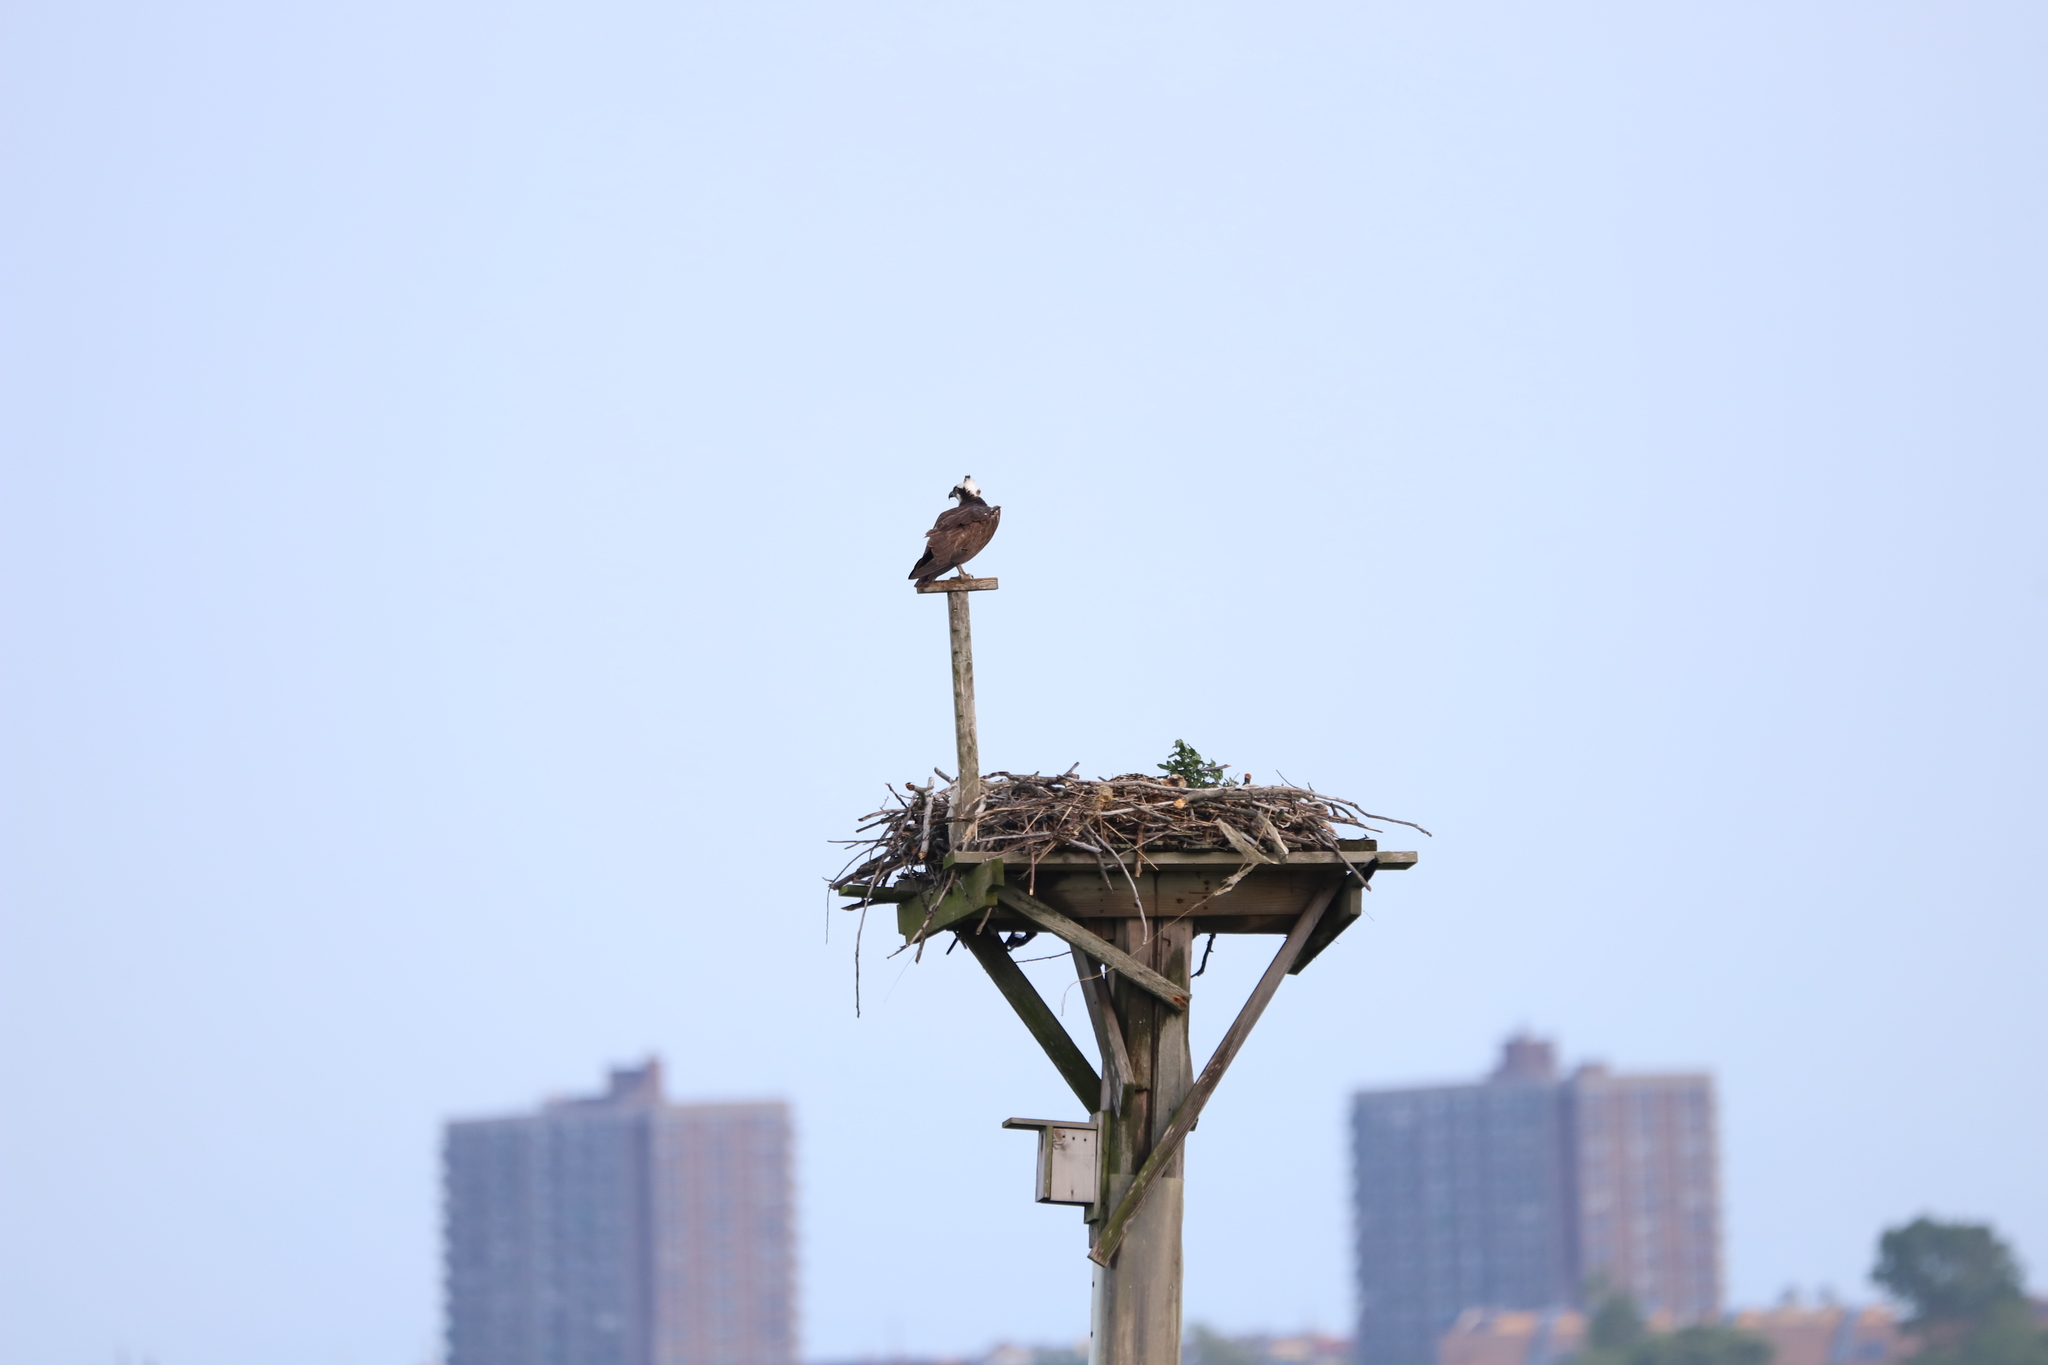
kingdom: Animalia
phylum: Chordata
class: Aves
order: Accipitriformes
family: Pandionidae
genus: Pandion
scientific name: Pandion haliaetus
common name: Osprey
